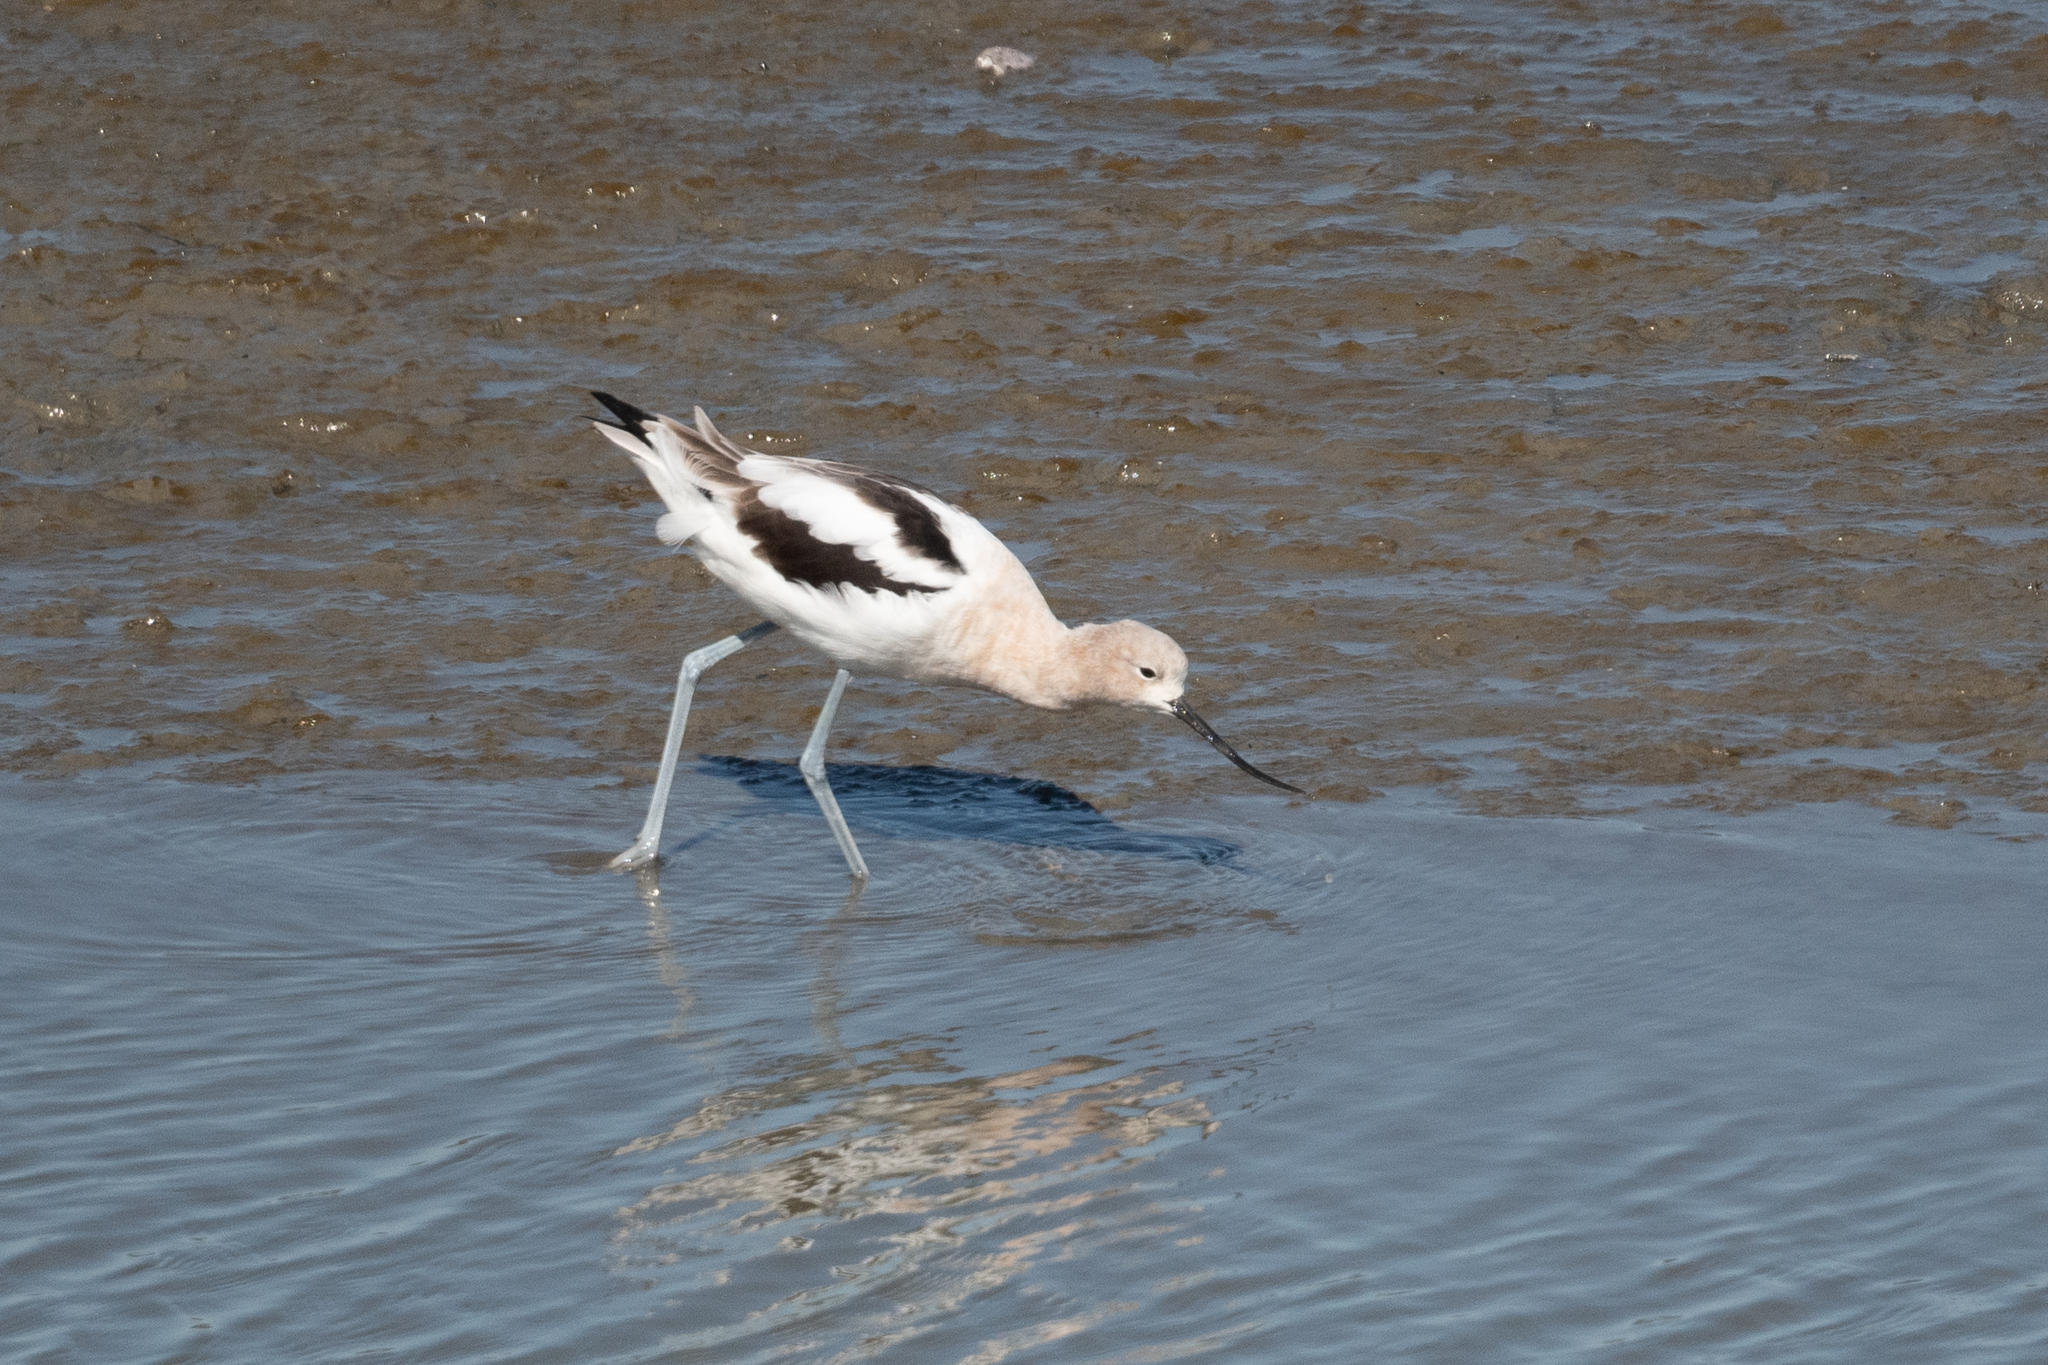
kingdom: Animalia
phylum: Chordata
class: Aves
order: Charadriiformes
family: Recurvirostridae
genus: Recurvirostra
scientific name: Recurvirostra americana
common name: American avocet
